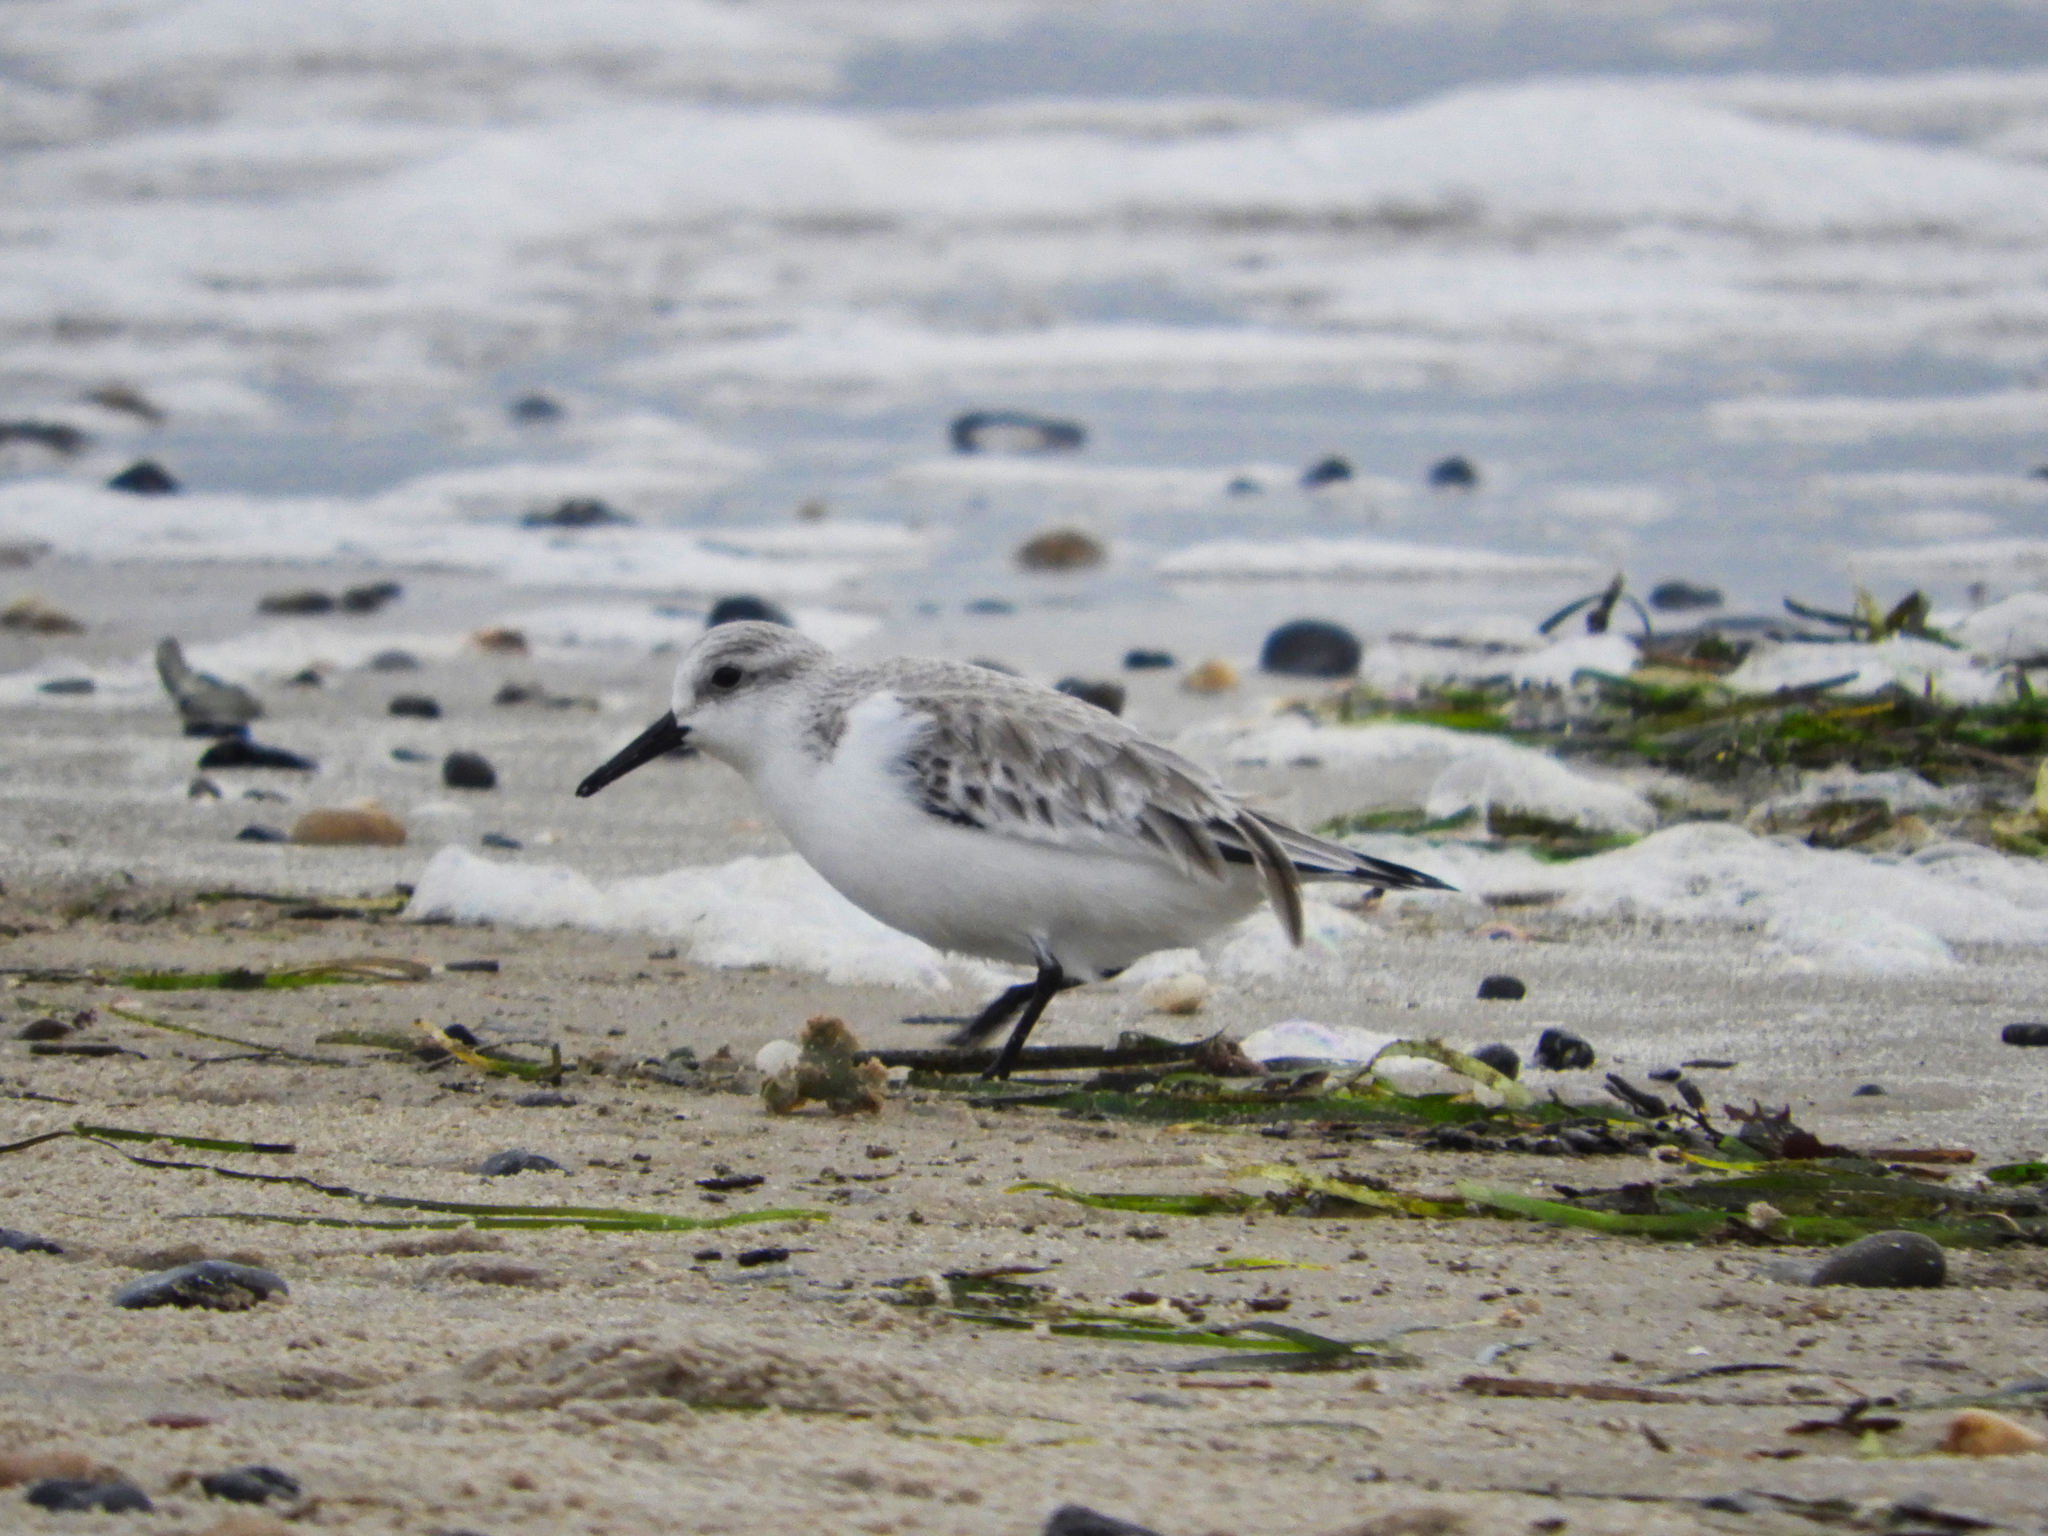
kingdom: Animalia
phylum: Chordata
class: Aves
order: Charadriiformes
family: Scolopacidae
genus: Calidris
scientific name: Calidris alba
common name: Sanderling
